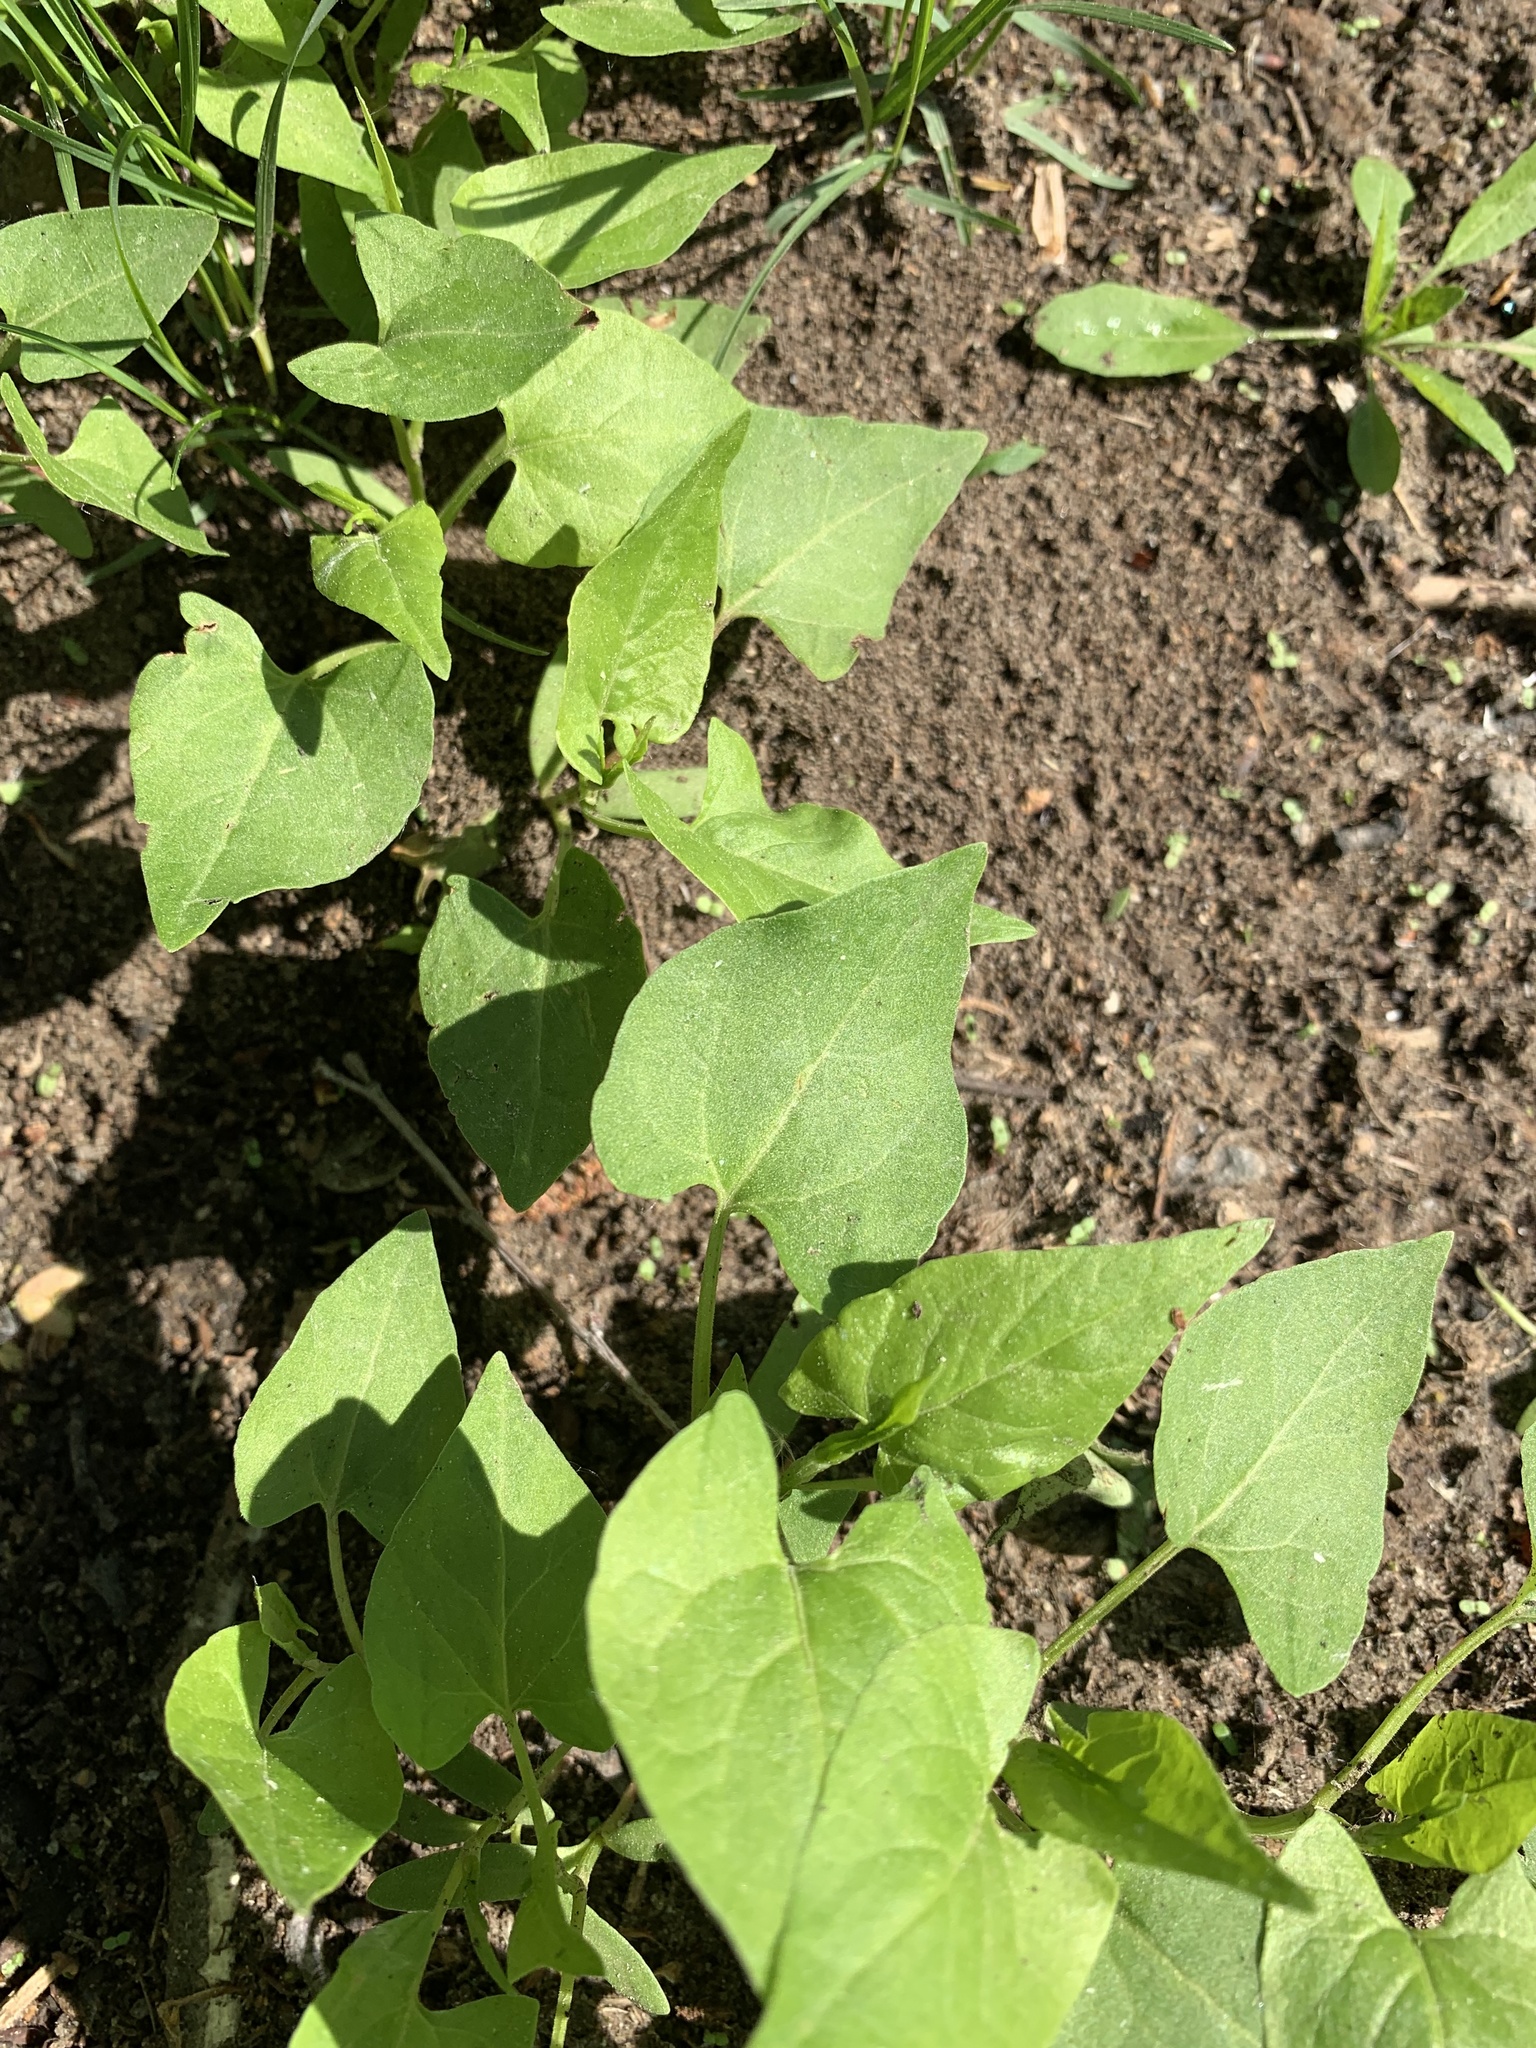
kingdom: Plantae
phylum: Tracheophyta
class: Magnoliopsida
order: Caryophyllales
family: Polygonaceae
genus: Fallopia
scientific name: Fallopia convolvulus
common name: Black bindweed
